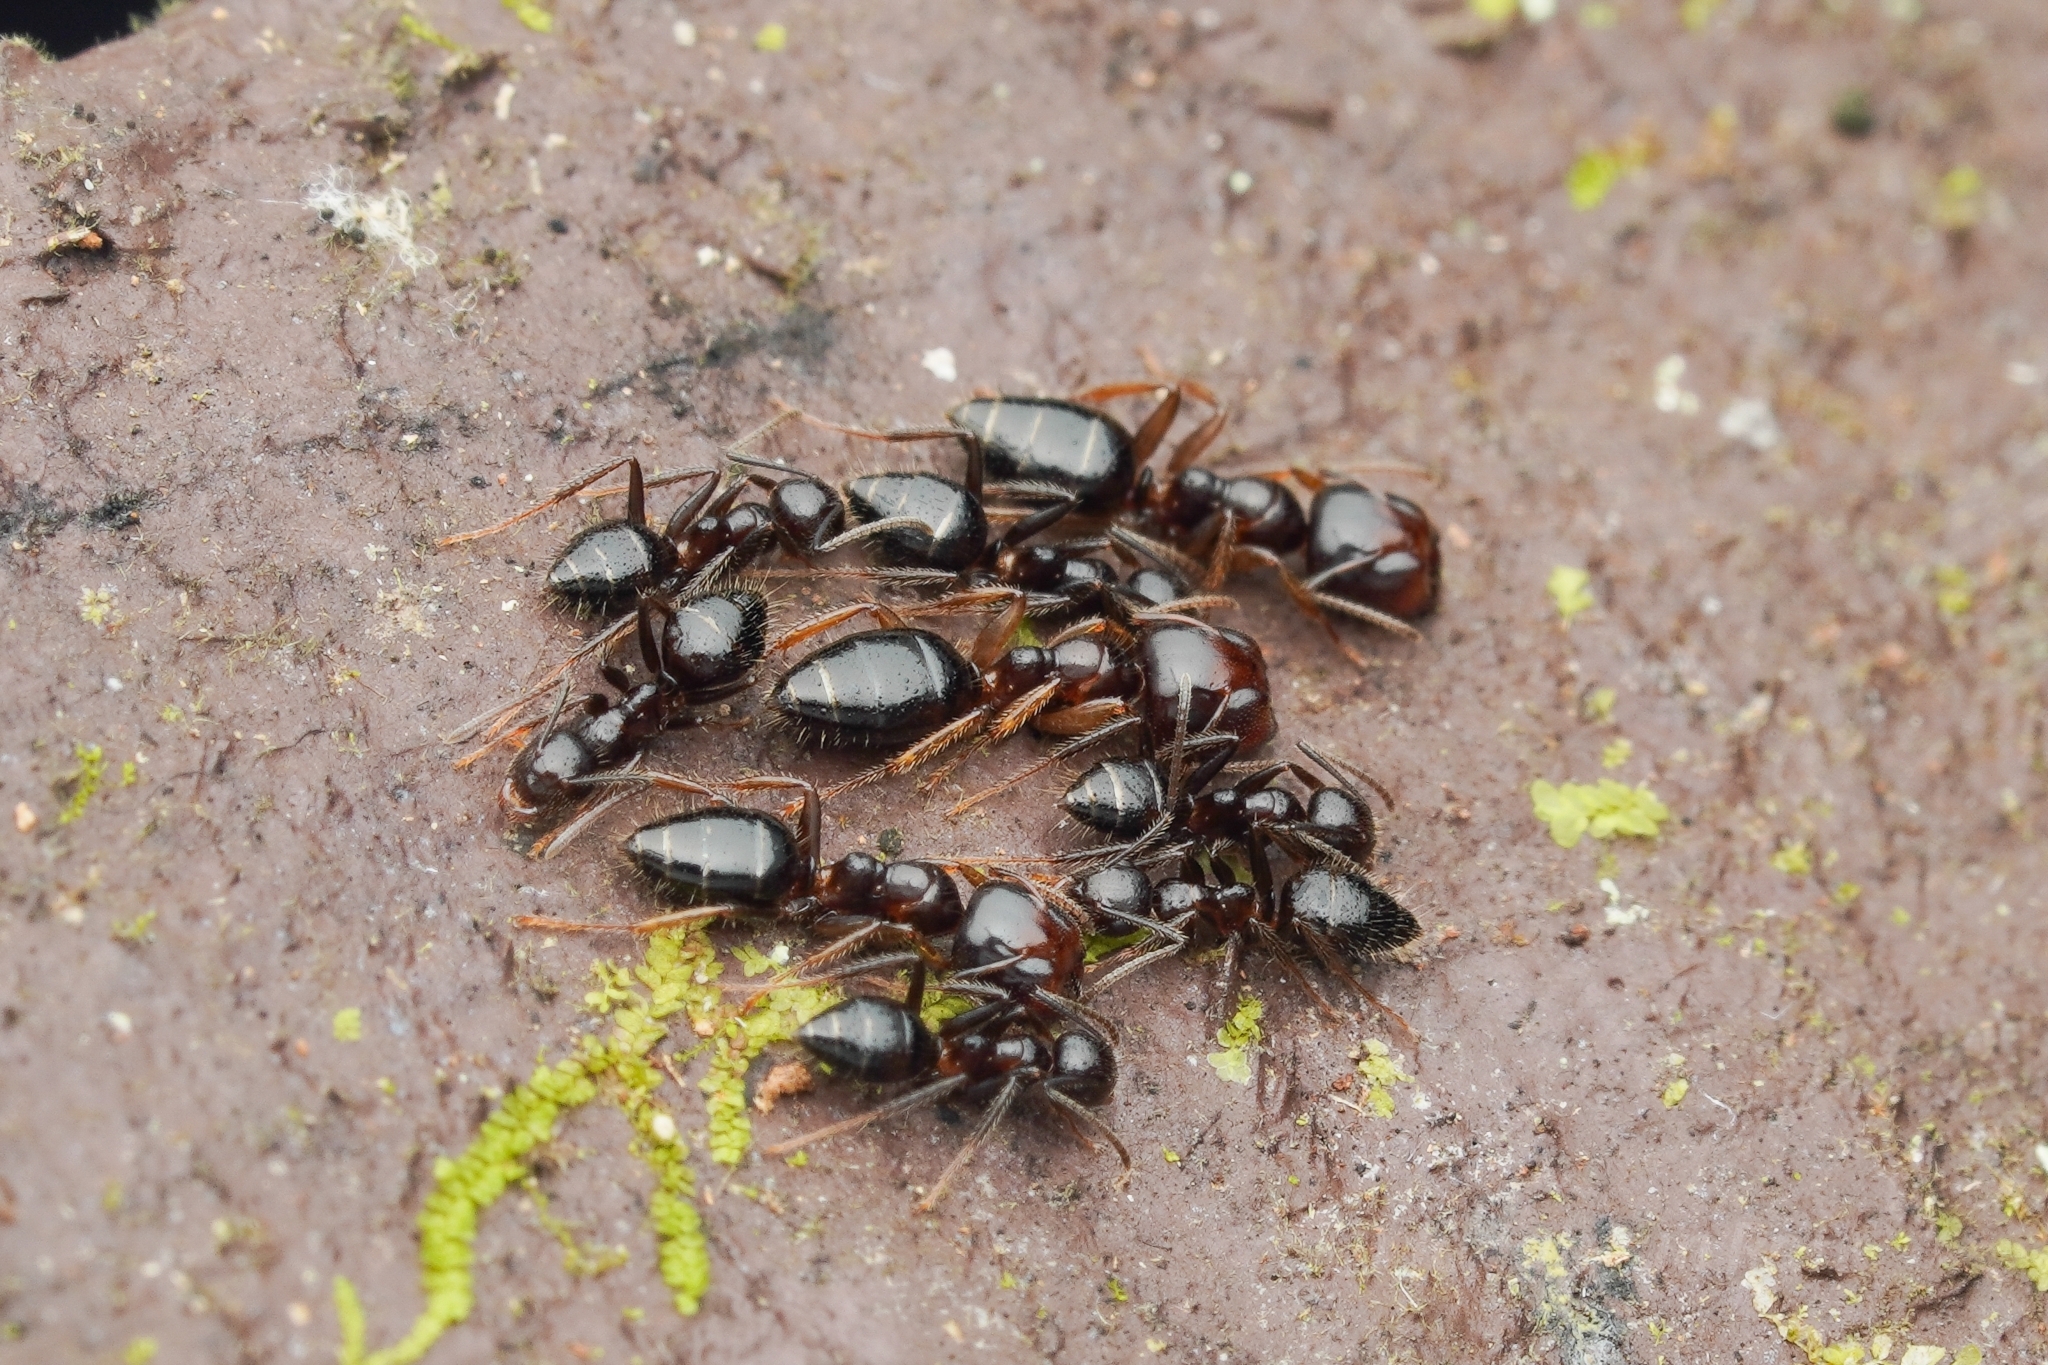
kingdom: Animalia
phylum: Arthropoda
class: Insecta
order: Hymenoptera
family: Formicidae
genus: Camponotus
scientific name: Camponotus vitreus
